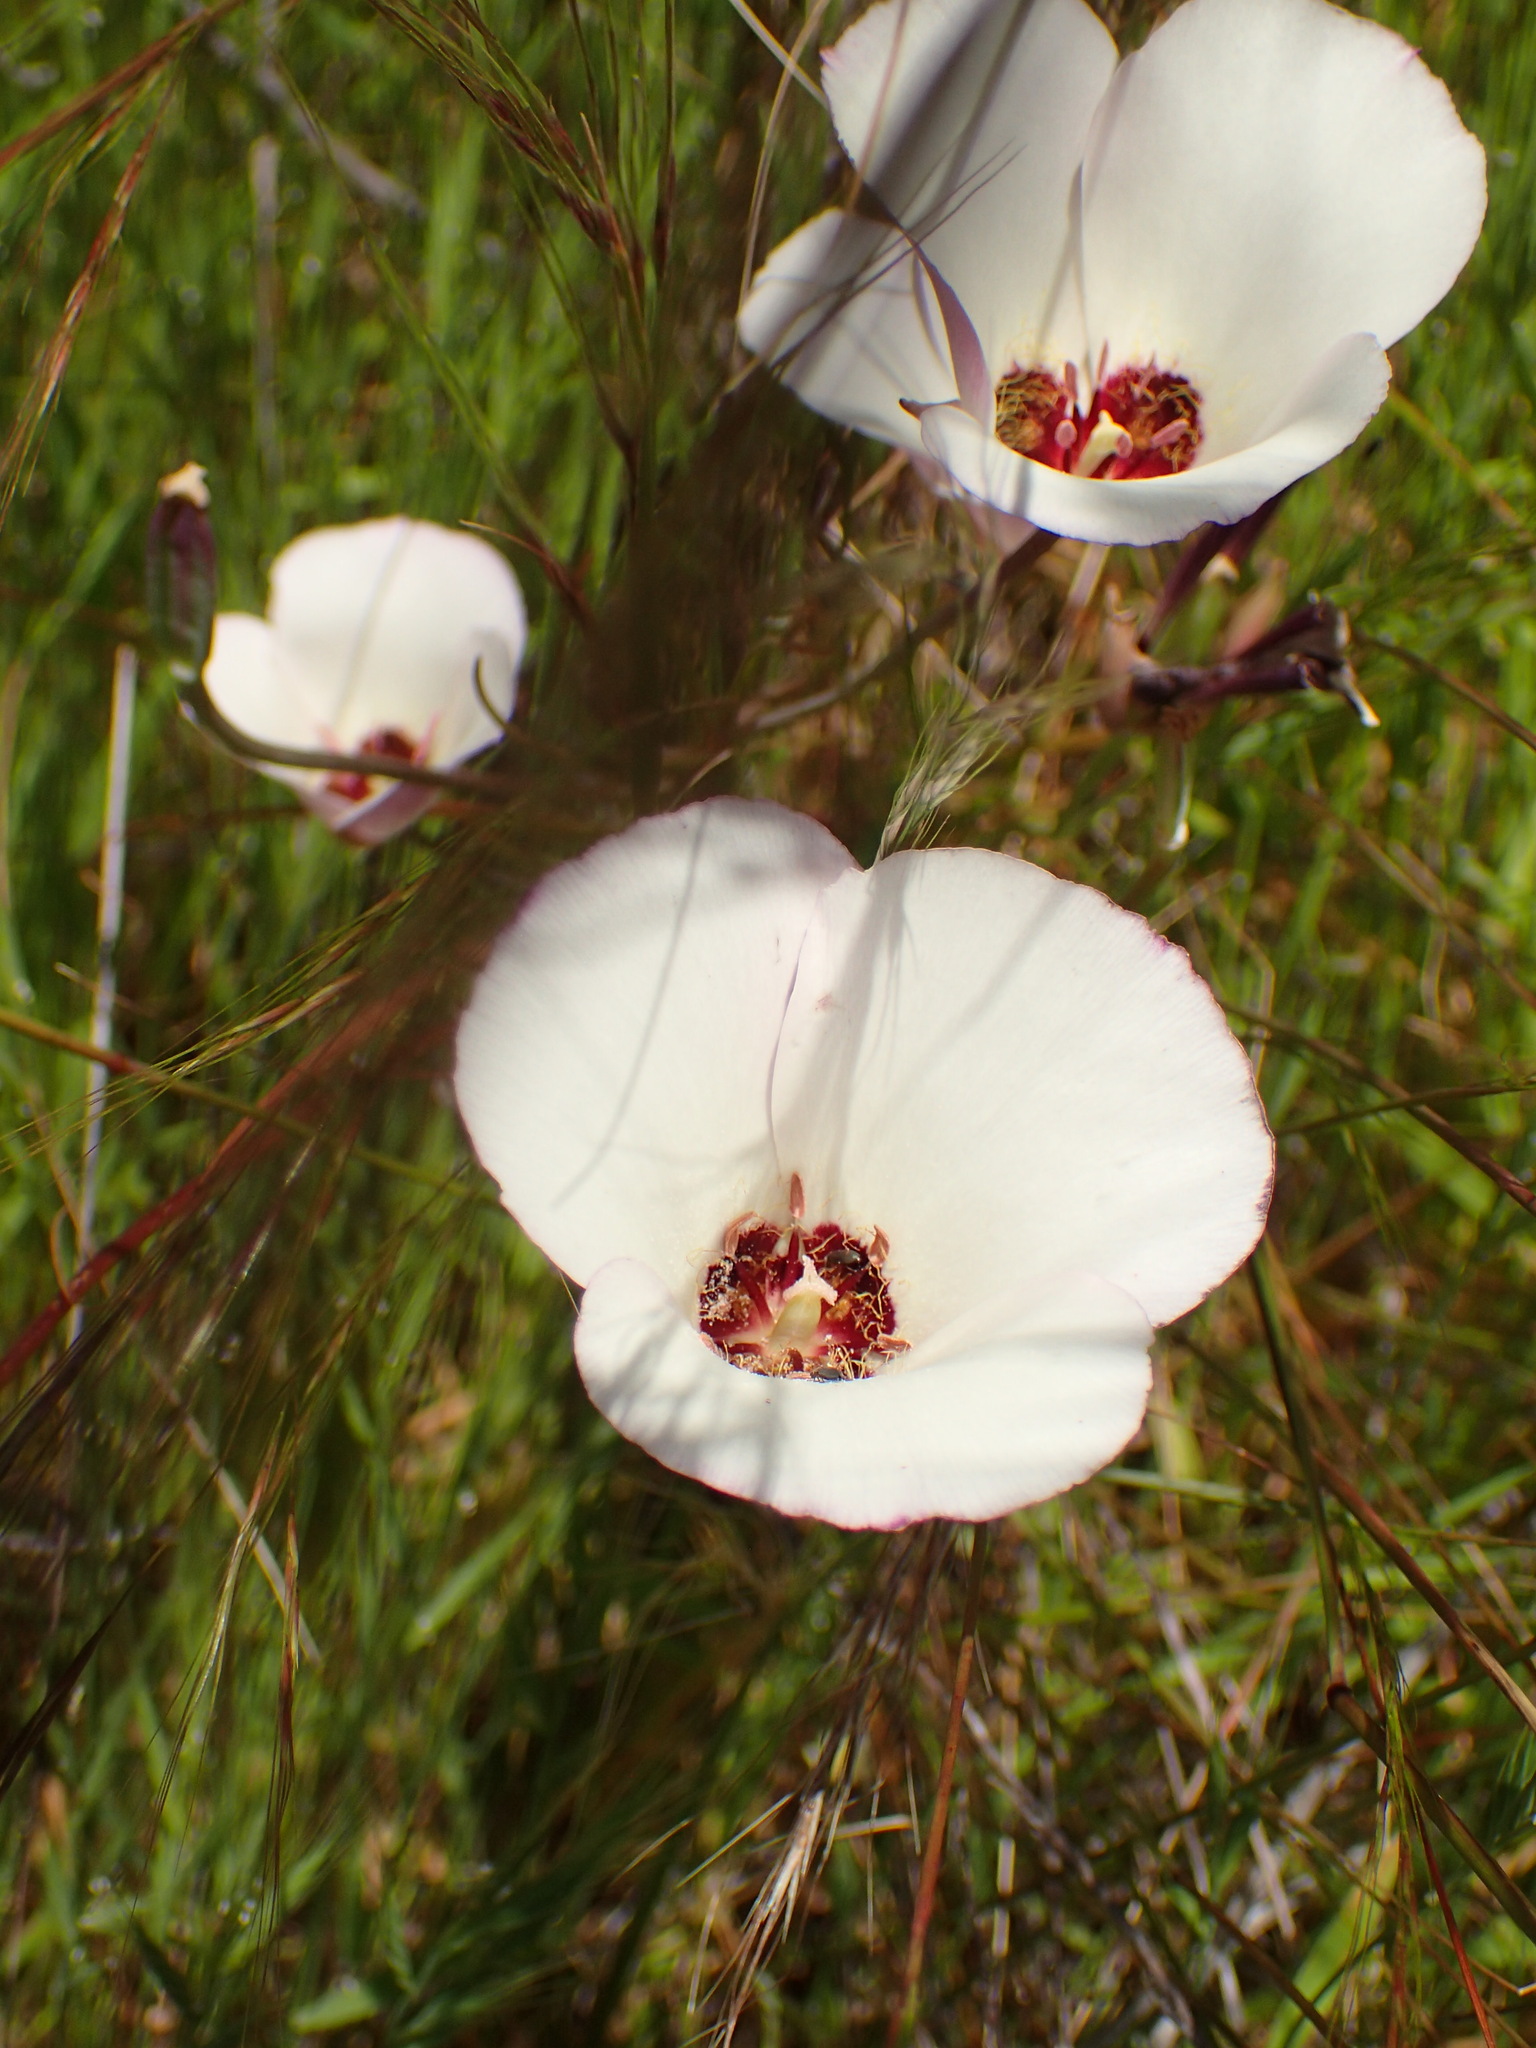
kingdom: Plantae
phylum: Tracheophyta
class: Liliopsida
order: Liliales
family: Liliaceae
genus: Calochortus
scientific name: Calochortus catalinae
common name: Catalina mariposa-lily
